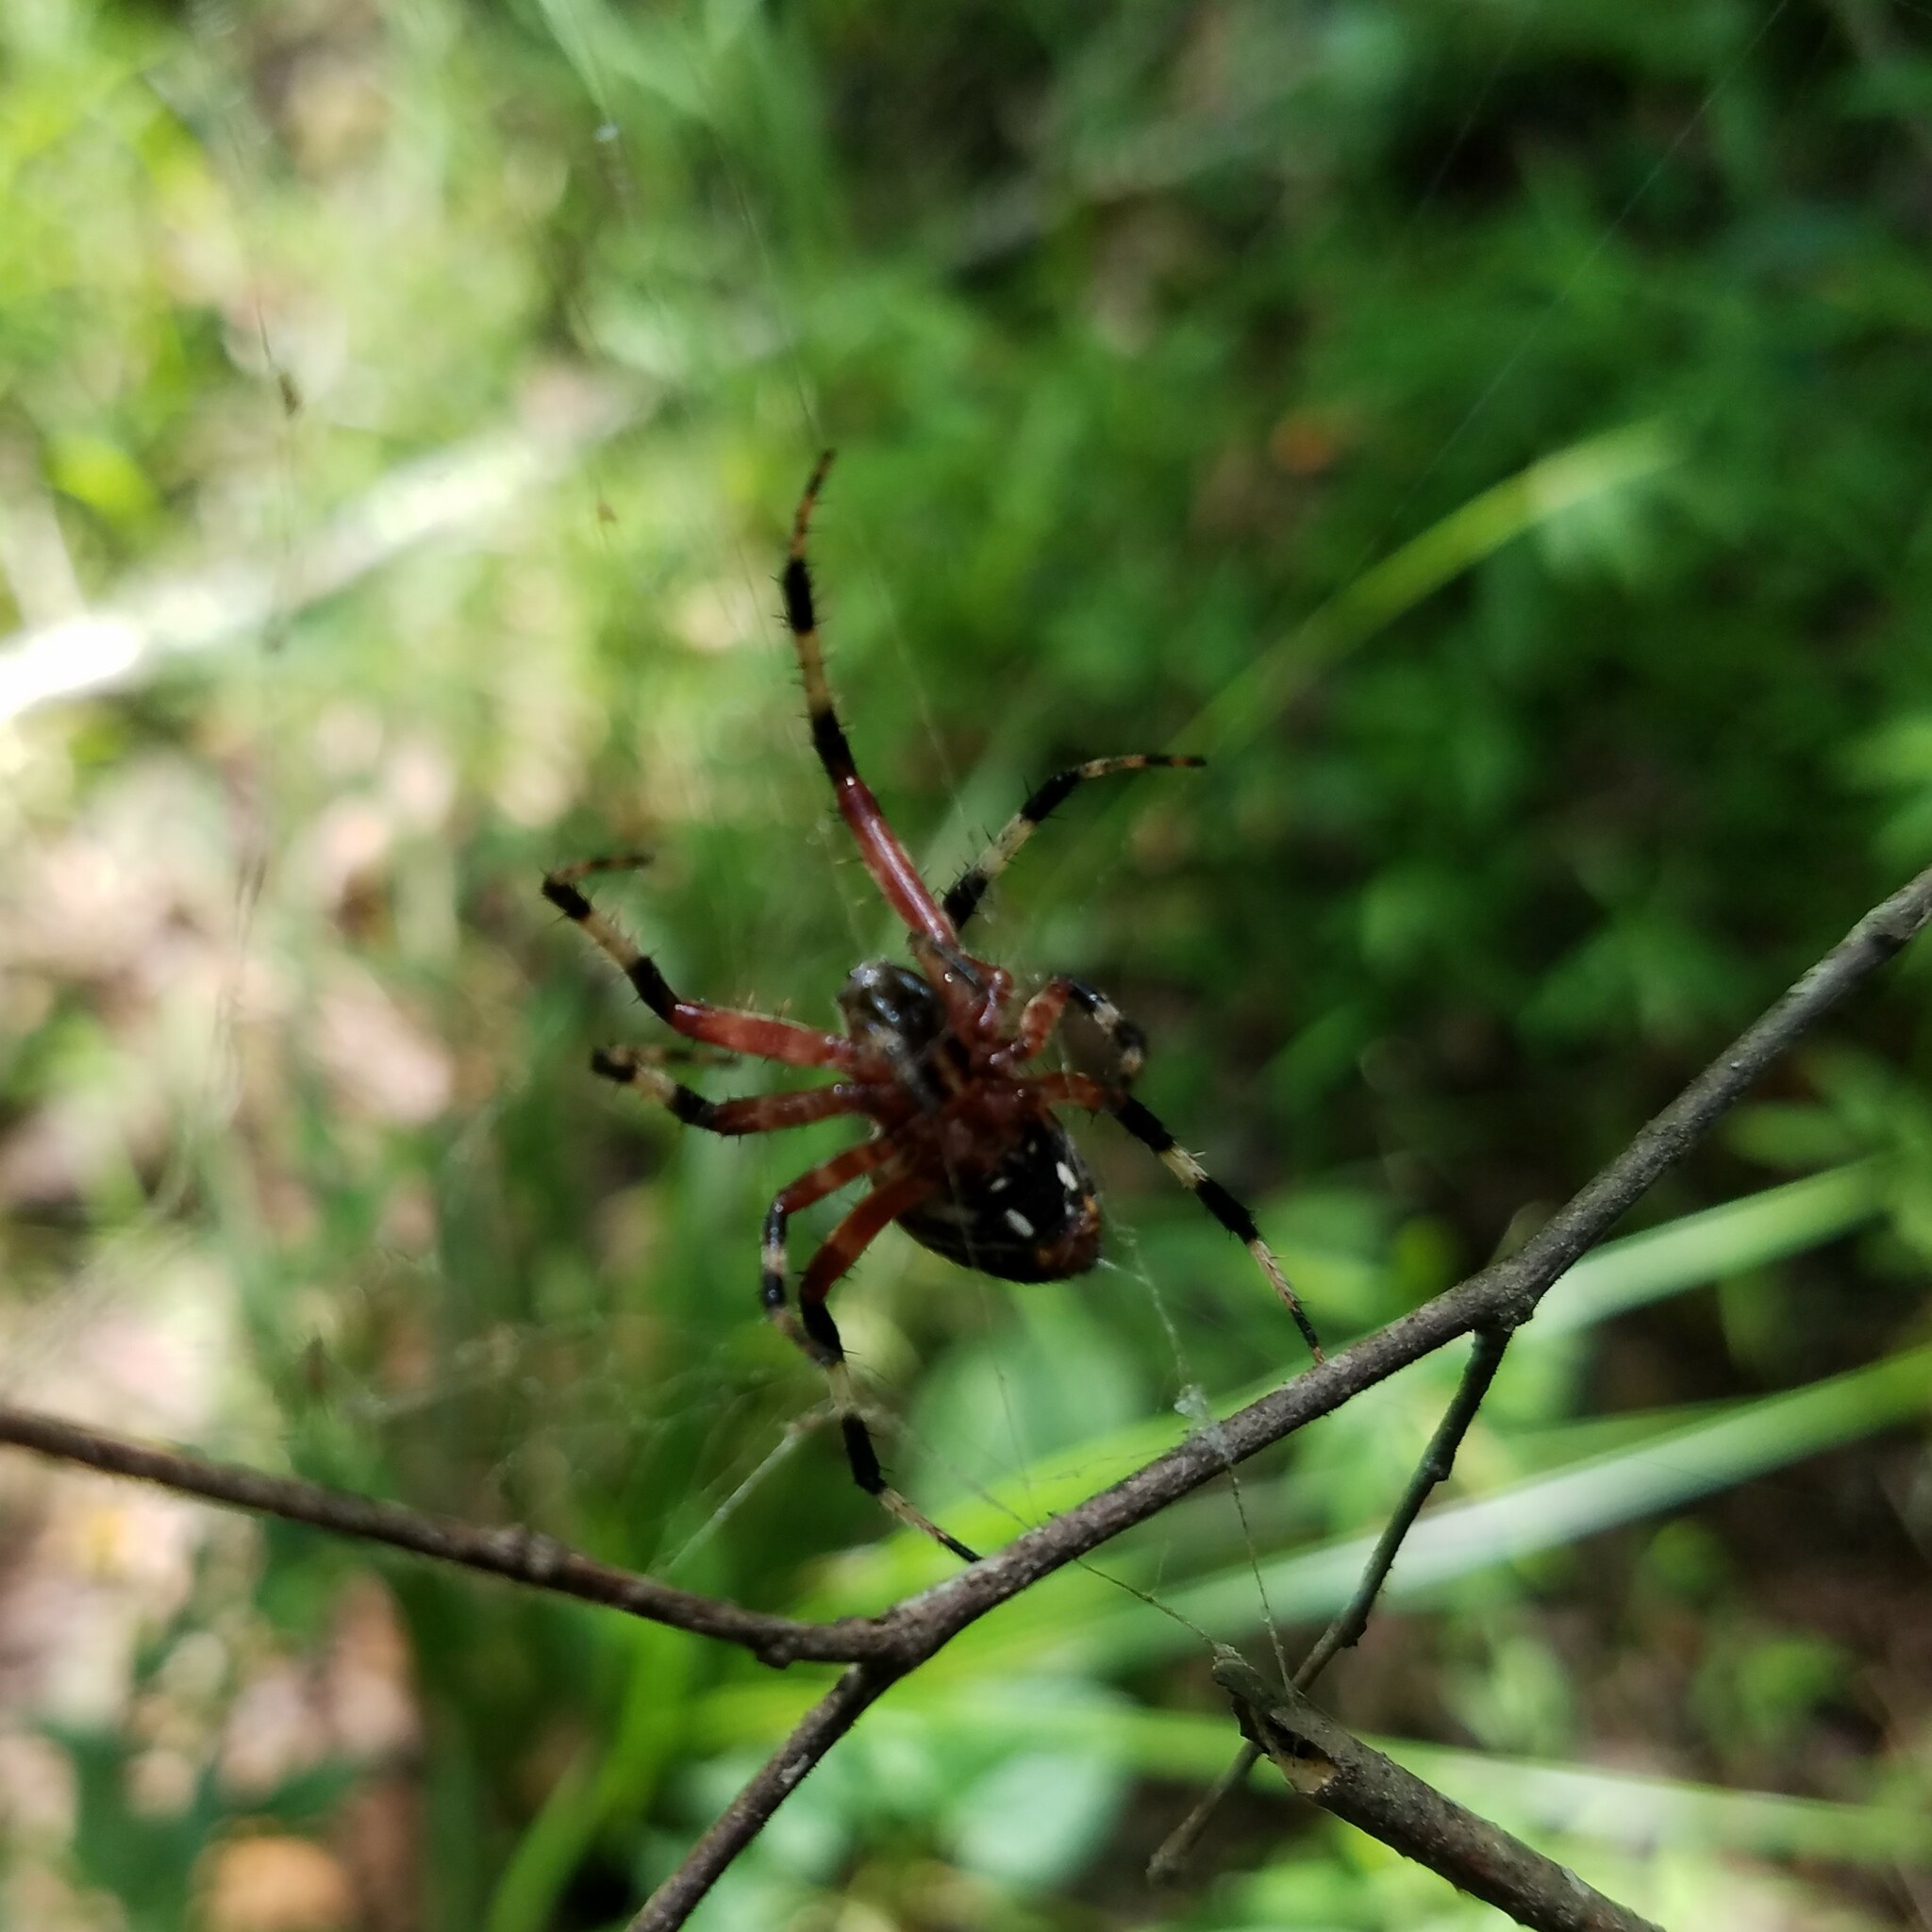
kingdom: Animalia
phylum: Arthropoda
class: Arachnida
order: Araneae
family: Araneidae
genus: Neoscona
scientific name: Neoscona domiciliorum
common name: Red-femured spotted orbweaver
